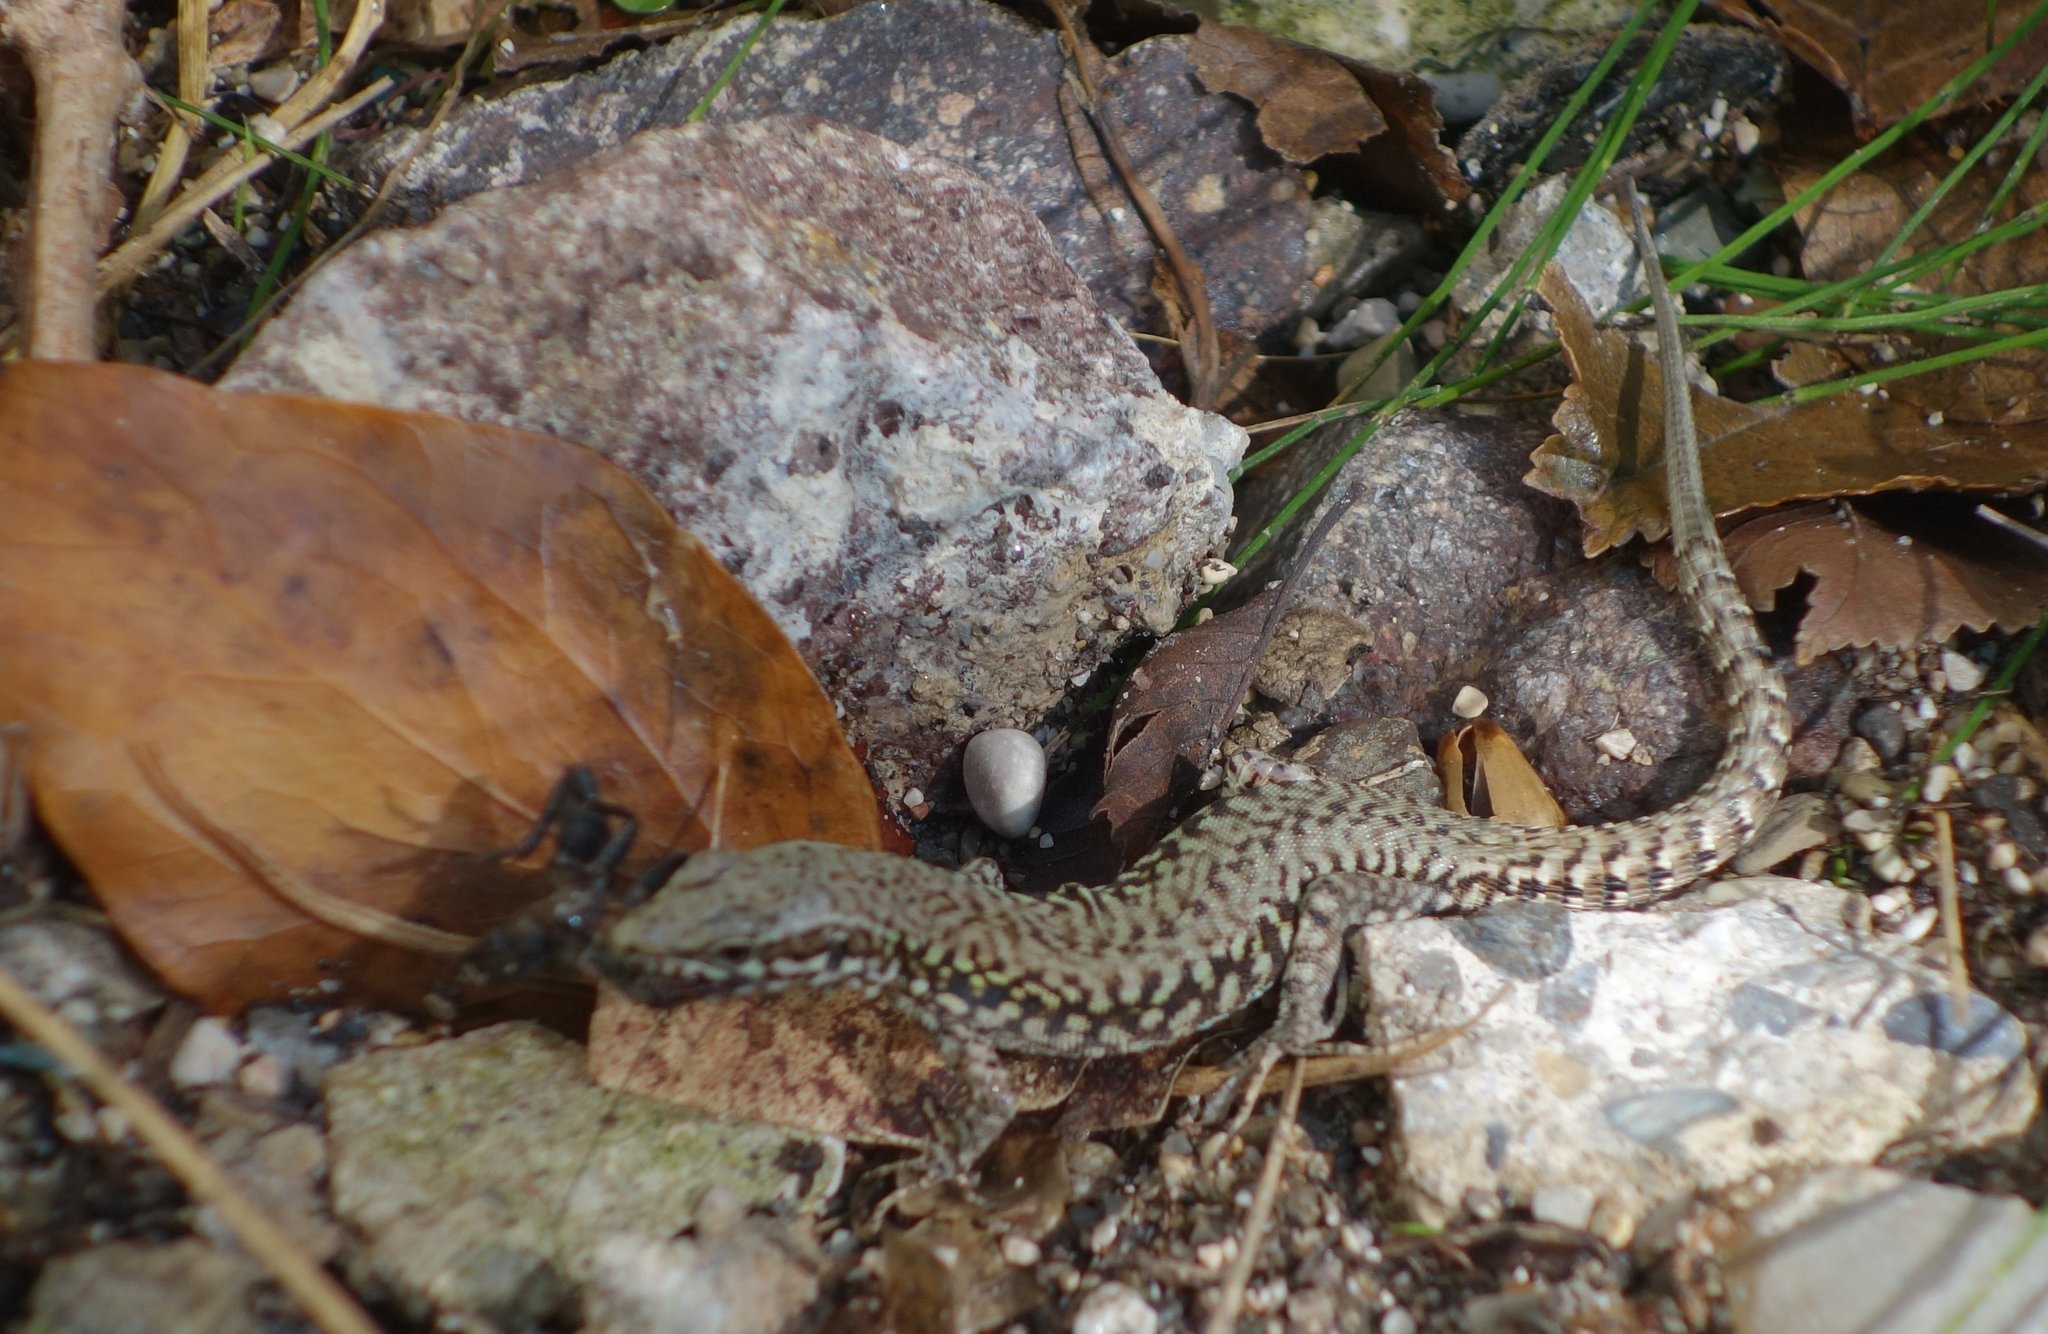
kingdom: Animalia
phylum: Chordata
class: Squamata
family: Lacertidae
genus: Podarcis
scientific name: Podarcis muralis
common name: Common wall lizard
